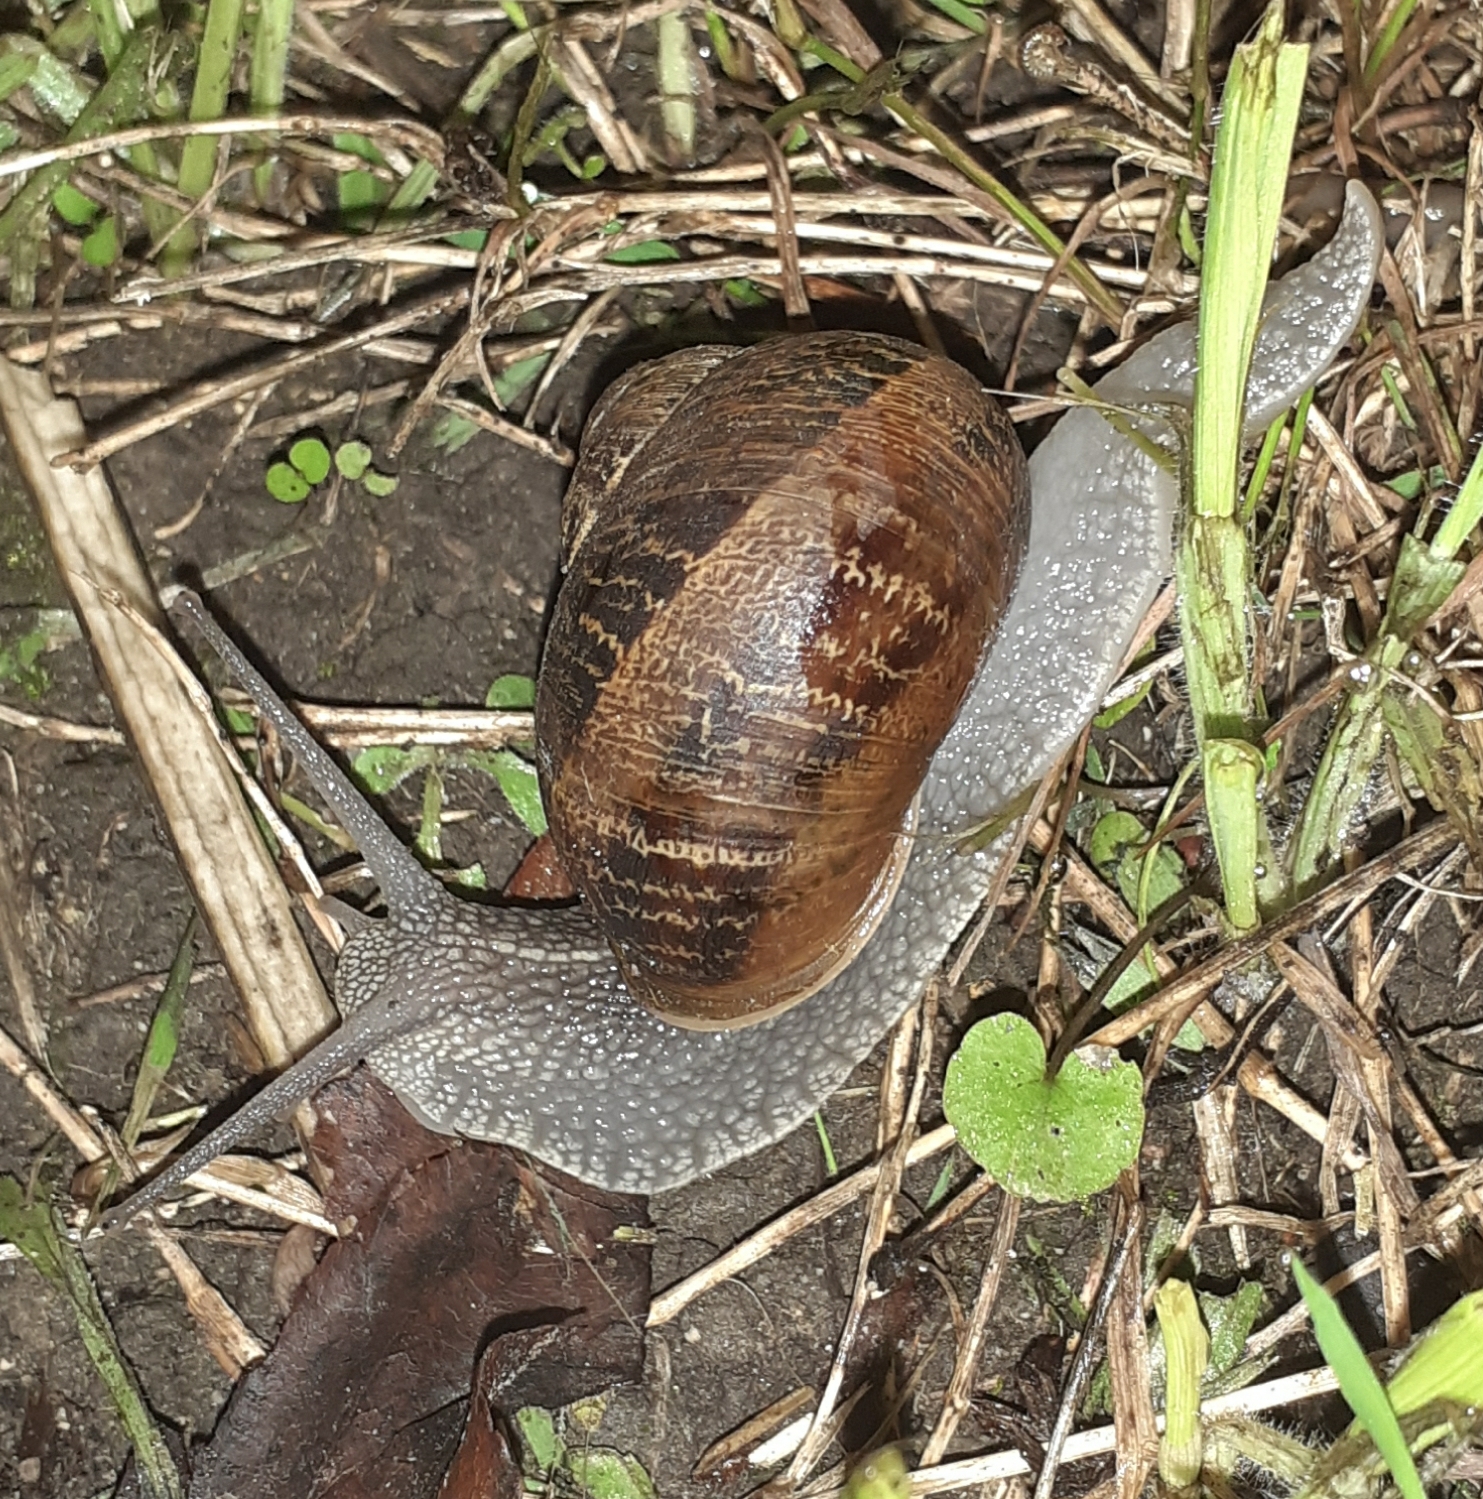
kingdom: Animalia
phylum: Mollusca
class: Gastropoda
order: Stylommatophora
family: Helicidae
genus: Cornu
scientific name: Cornu aspersum
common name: Brown garden snail
